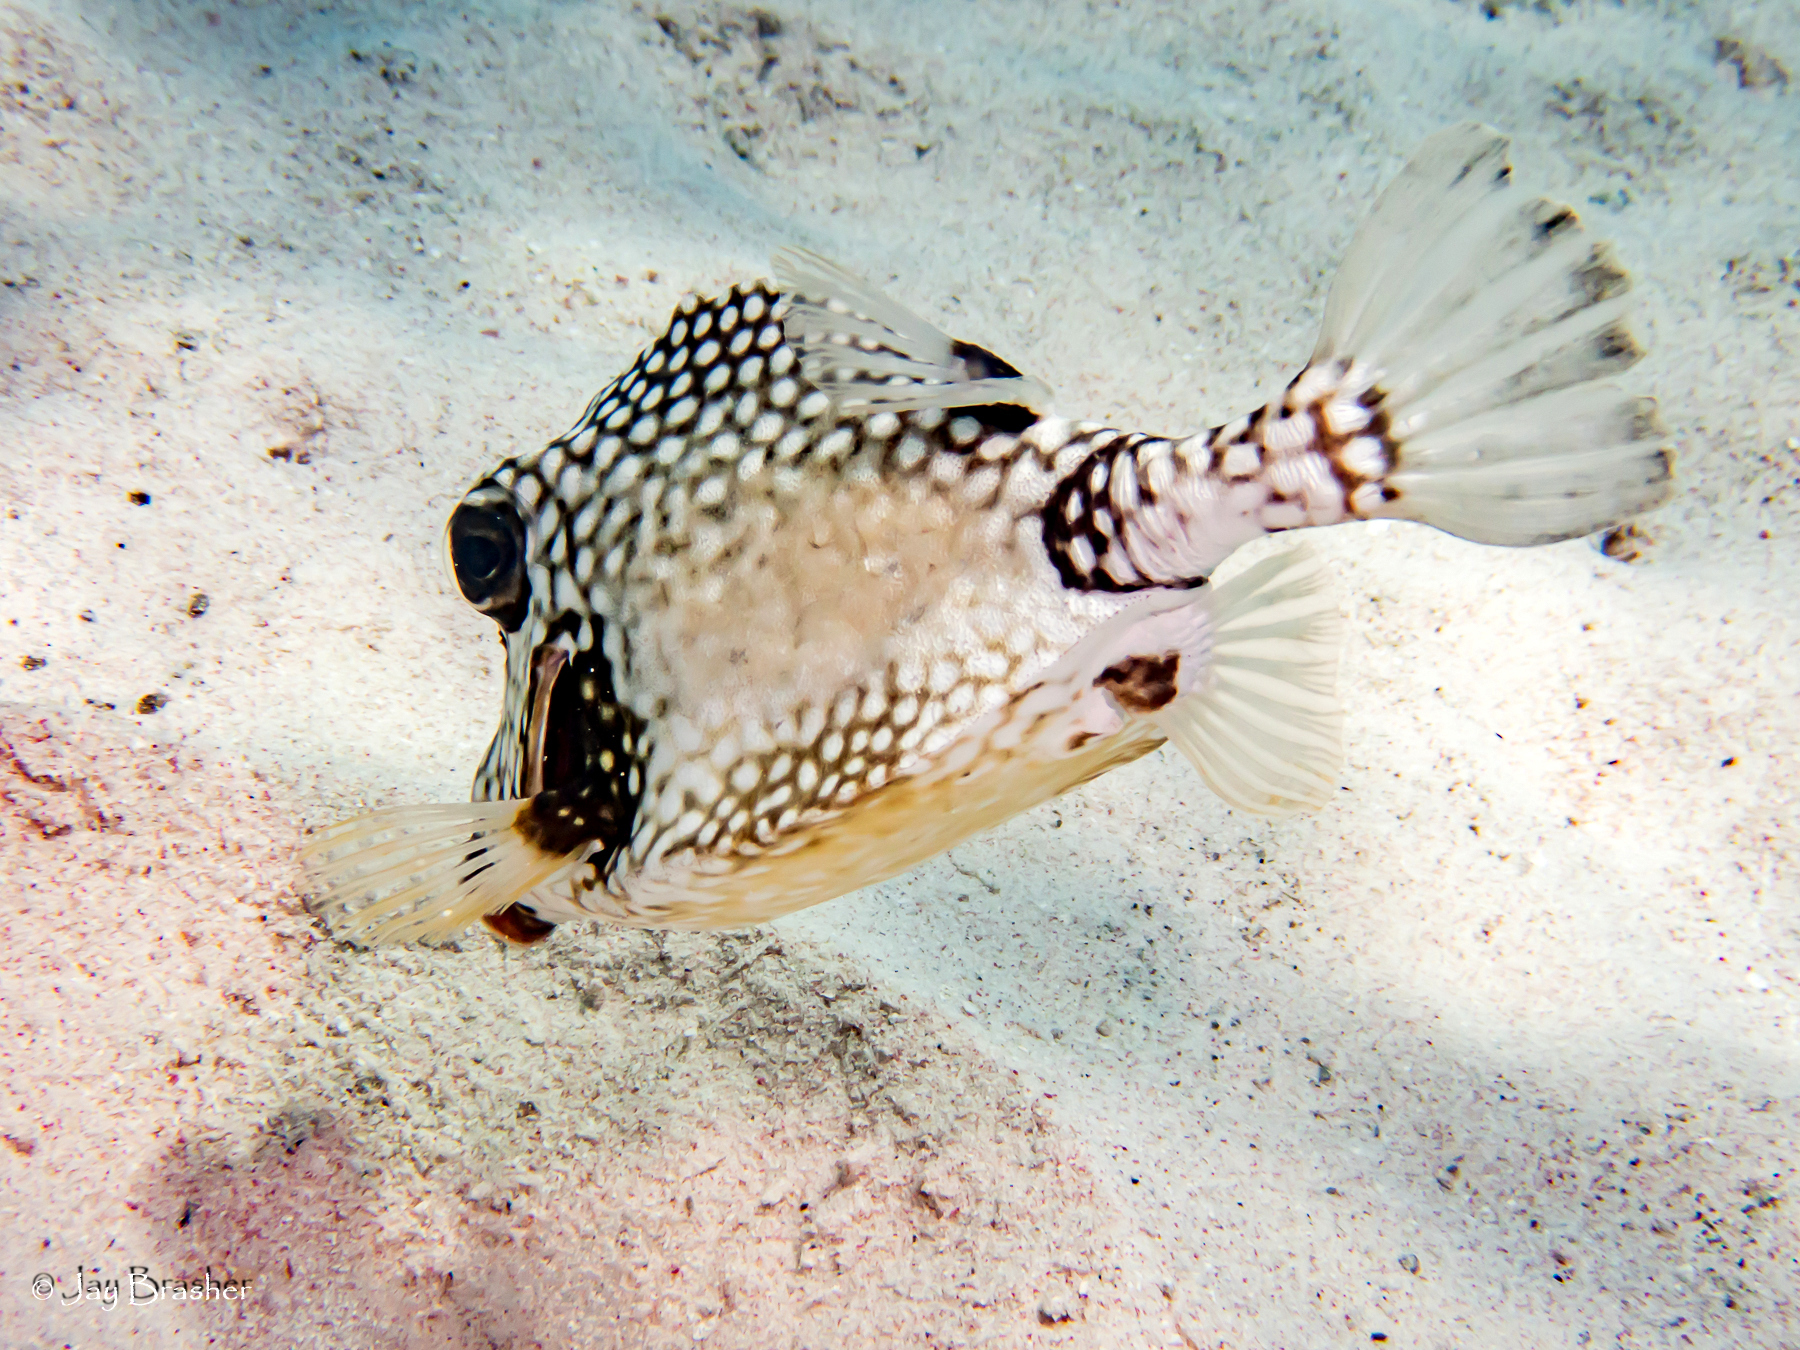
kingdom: Animalia
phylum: Chordata
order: Tetraodontiformes
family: Ostraciidae
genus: Lactophrys
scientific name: Lactophrys triqueter
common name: Smooth trunkfish
